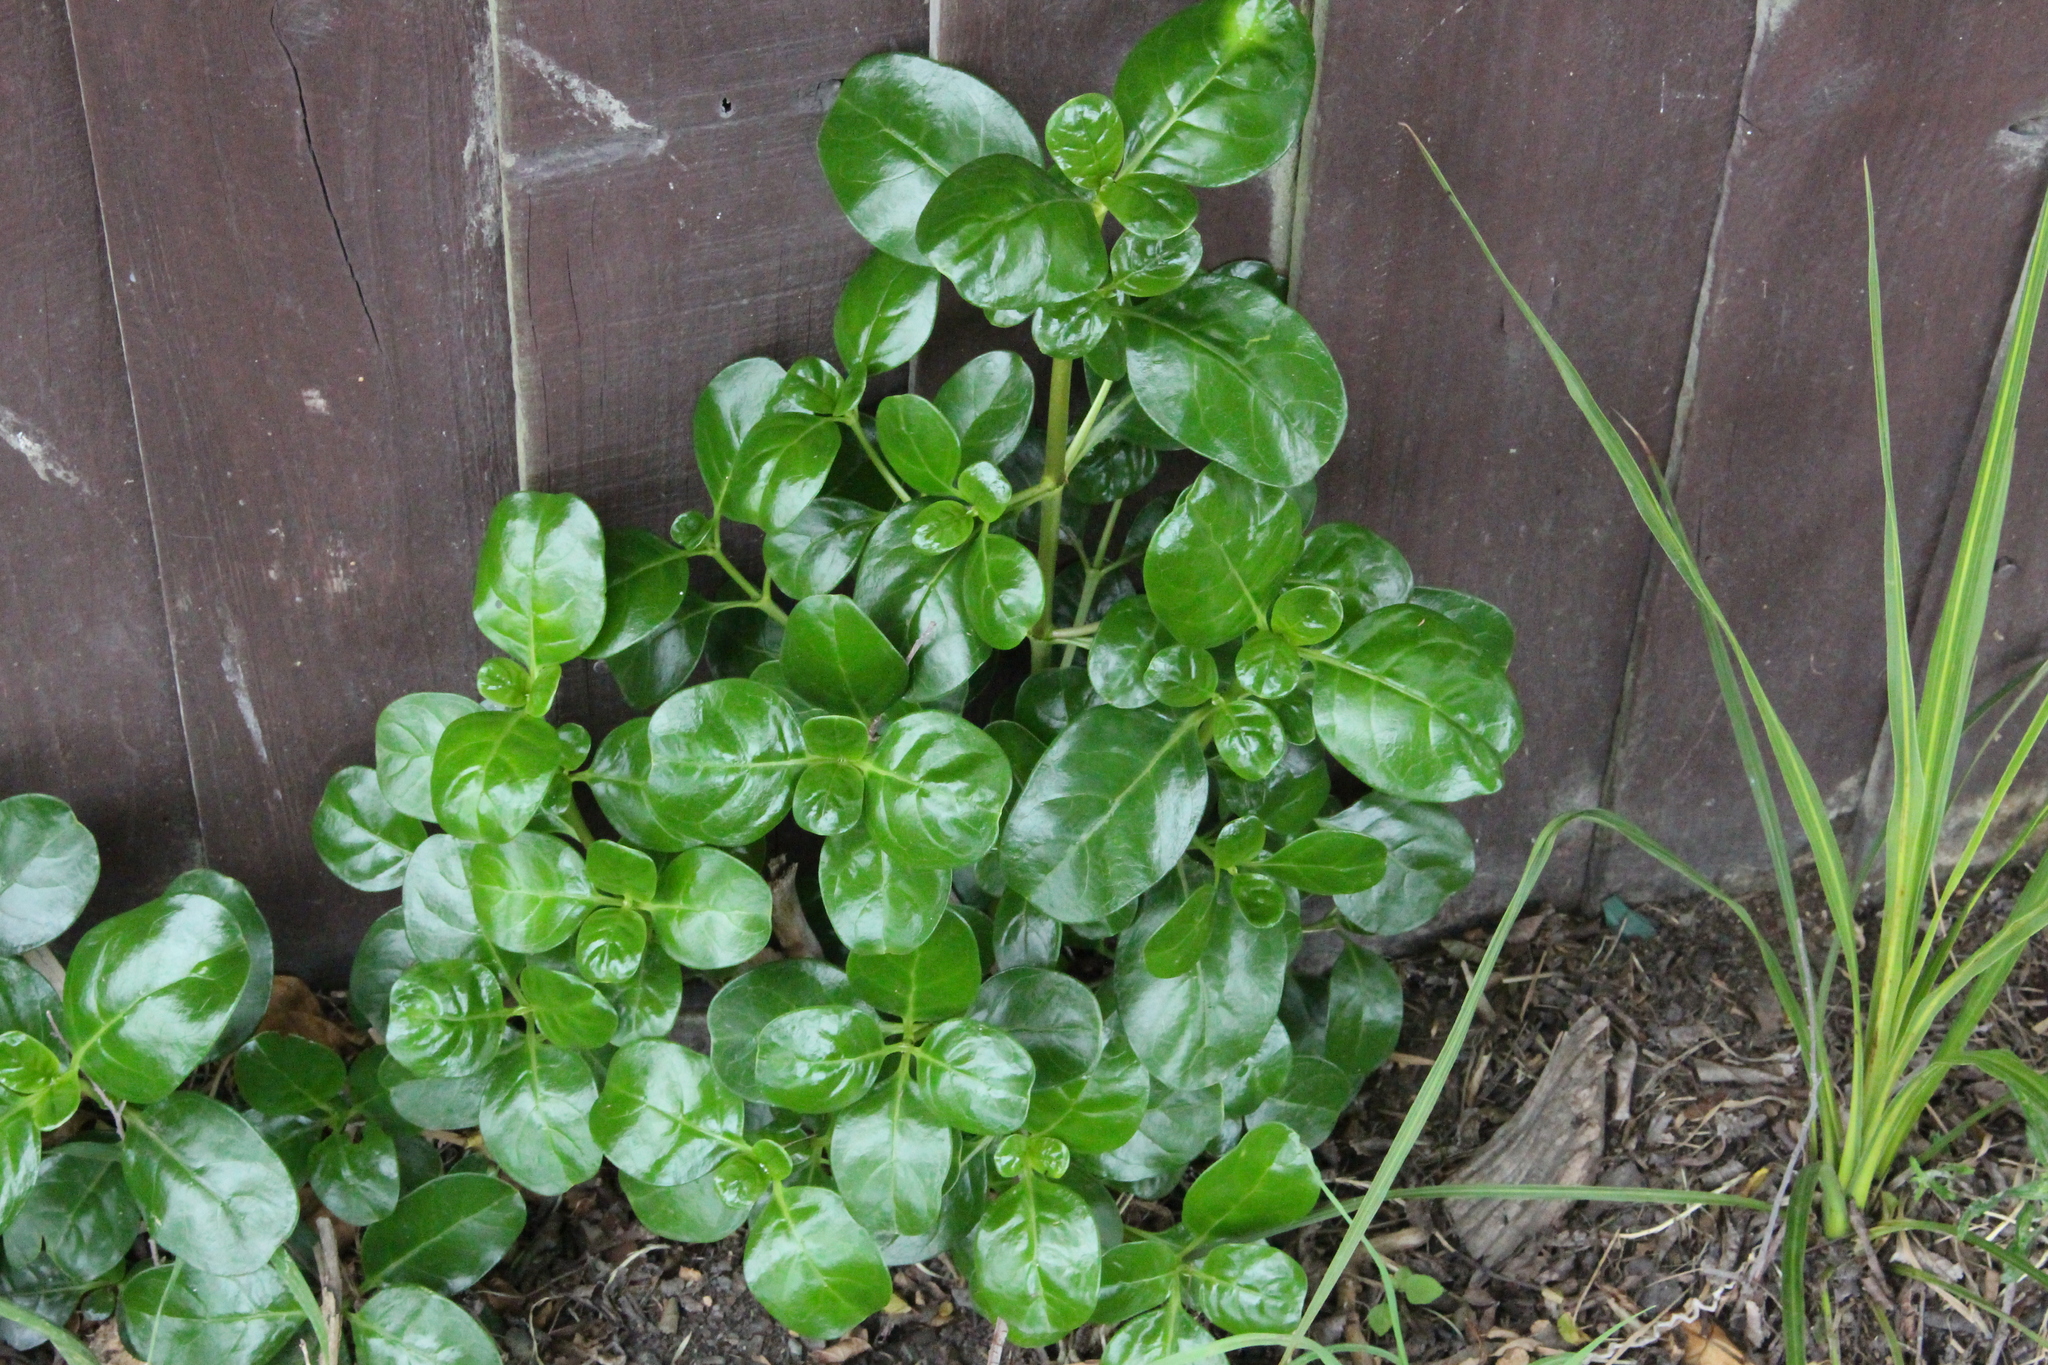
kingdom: Plantae
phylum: Tracheophyta
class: Magnoliopsida
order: Gentianales
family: Rubiaceae
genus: Coprosma
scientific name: Coprosma repens
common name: Tree bedstraw
